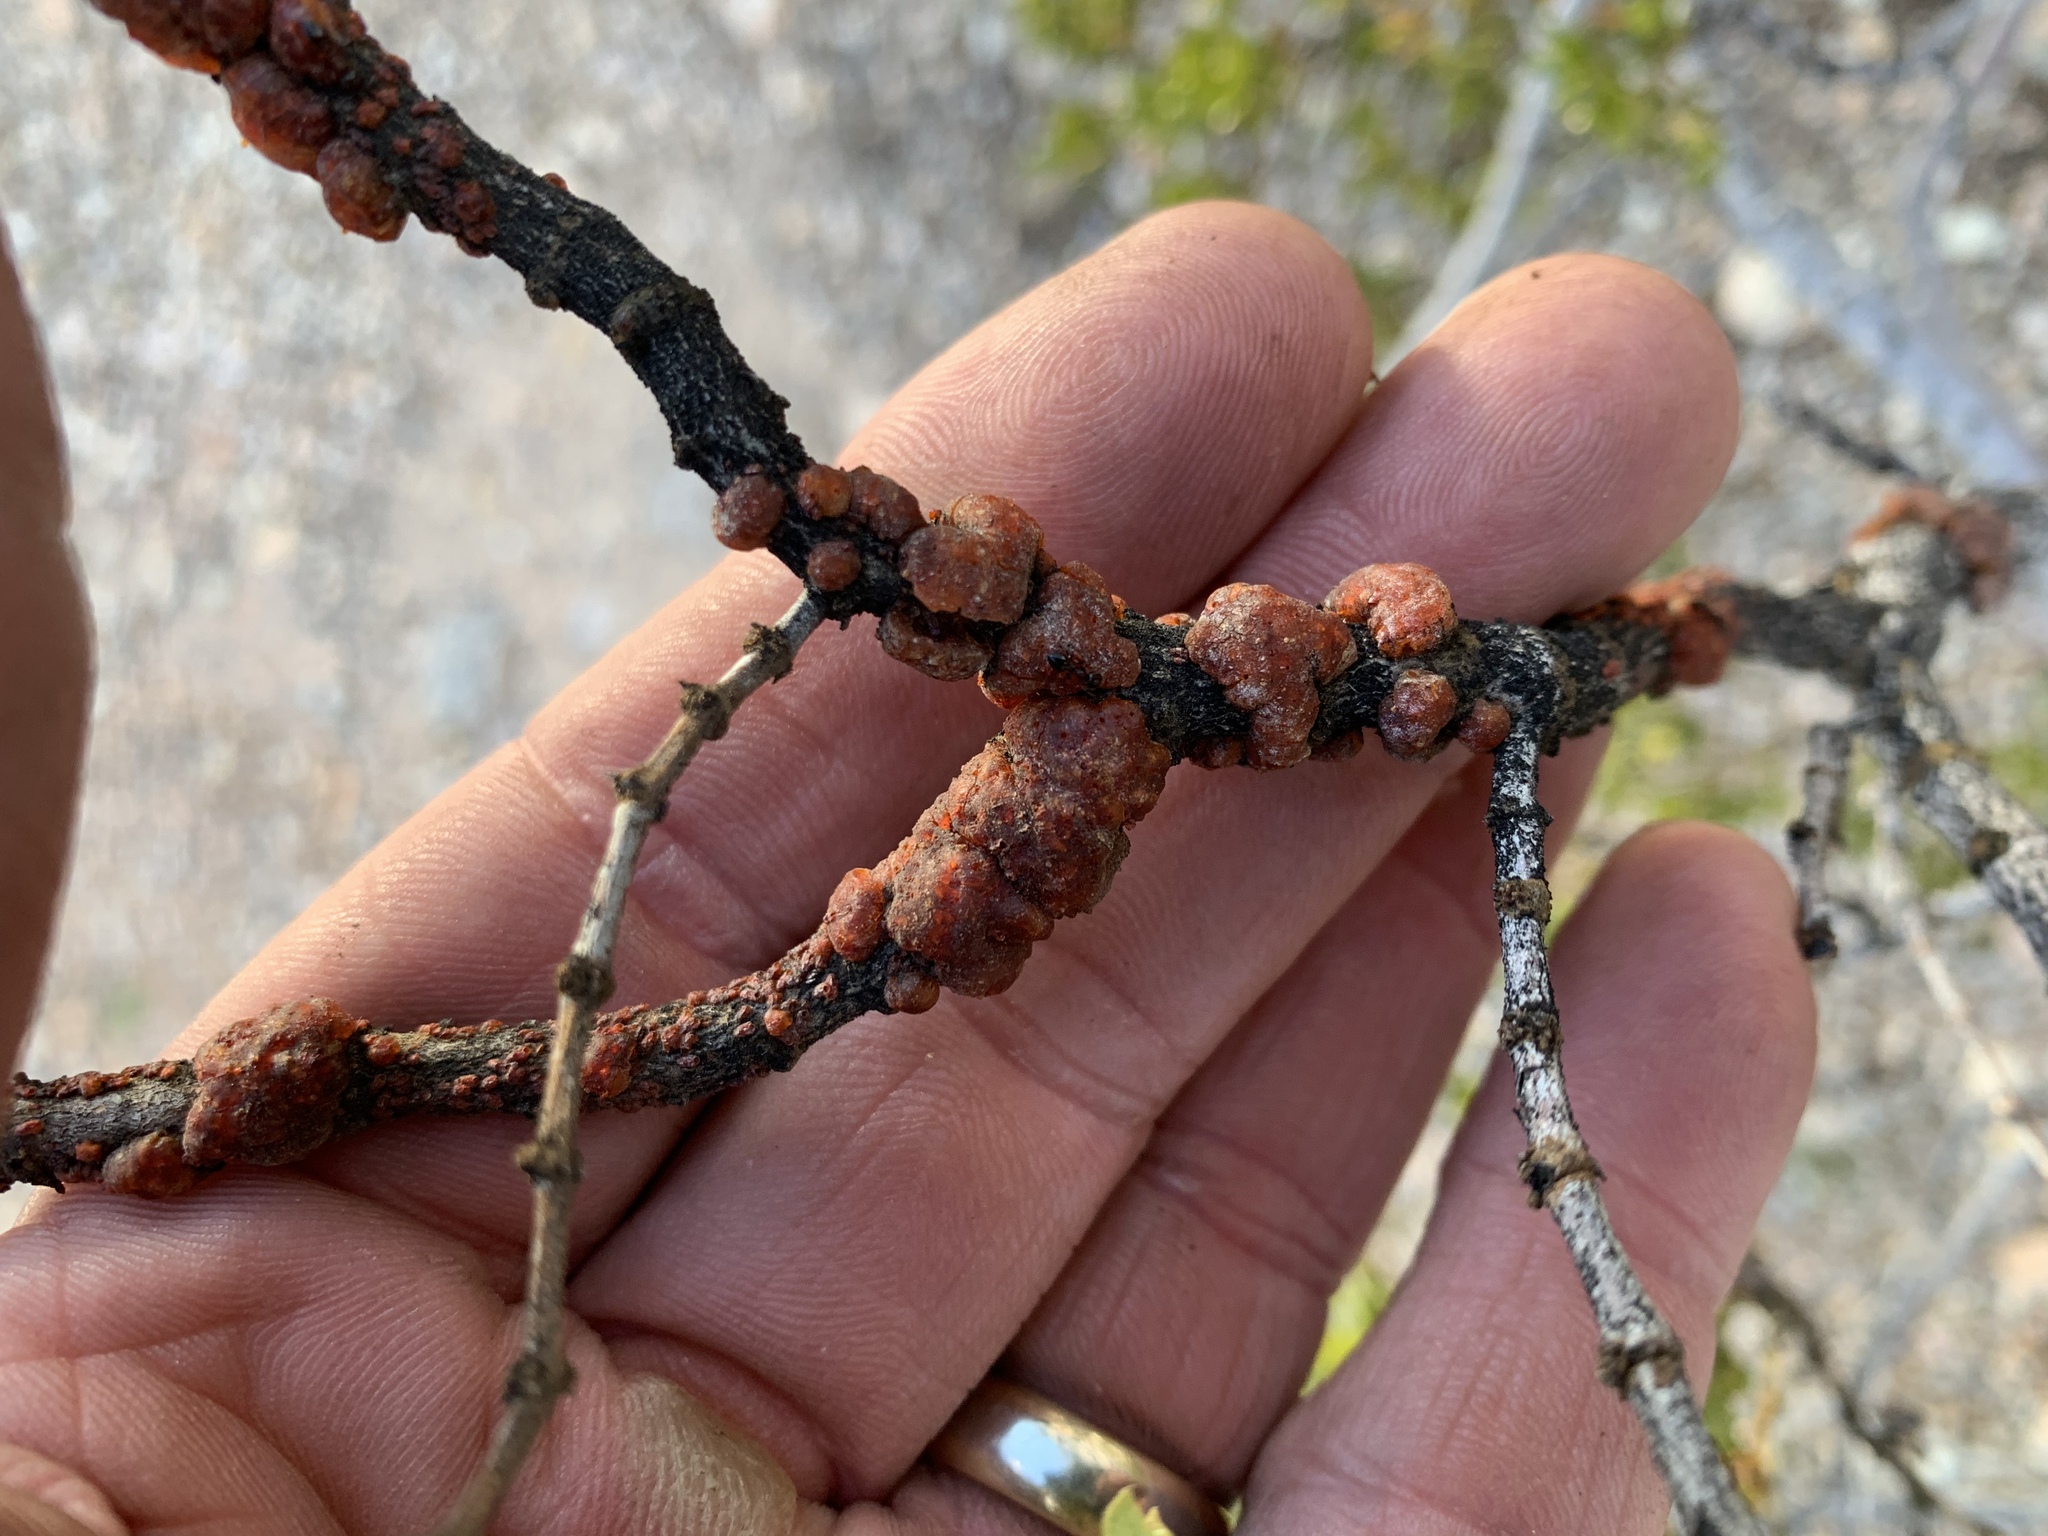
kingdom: Animalia
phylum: Arthropoda
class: Insecta
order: Hemiptera
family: Kerriidae
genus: Tachardiella
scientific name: Tachardiella larreae
